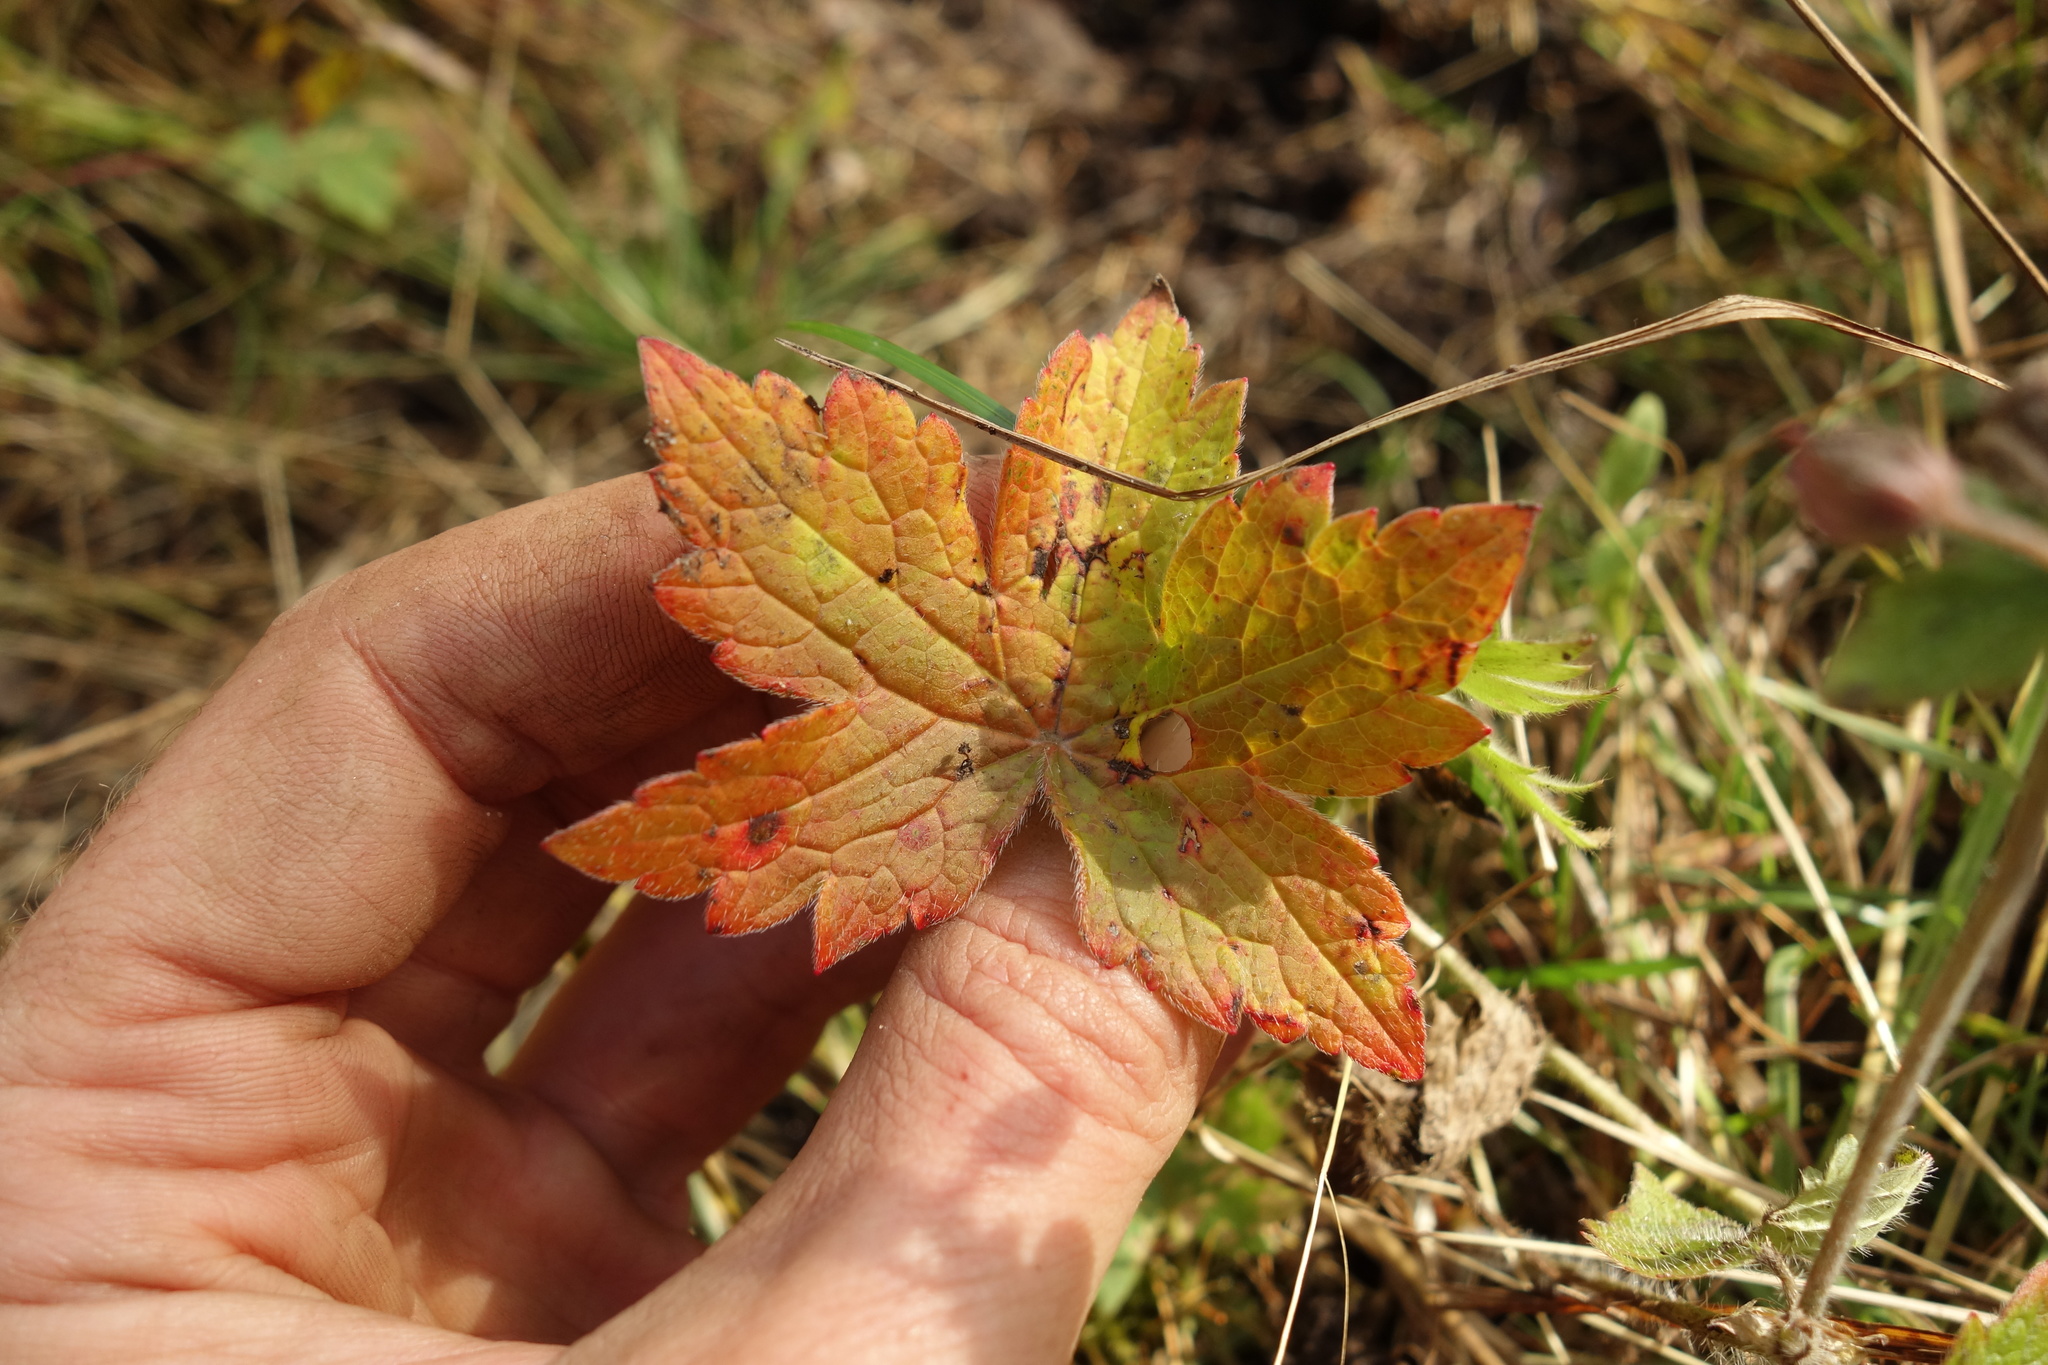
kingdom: Plantae
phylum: Tracheophyta
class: Magnoliopsida
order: Geraniales
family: Geraniaceae
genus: Geranium
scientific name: Geranium platyanthum
